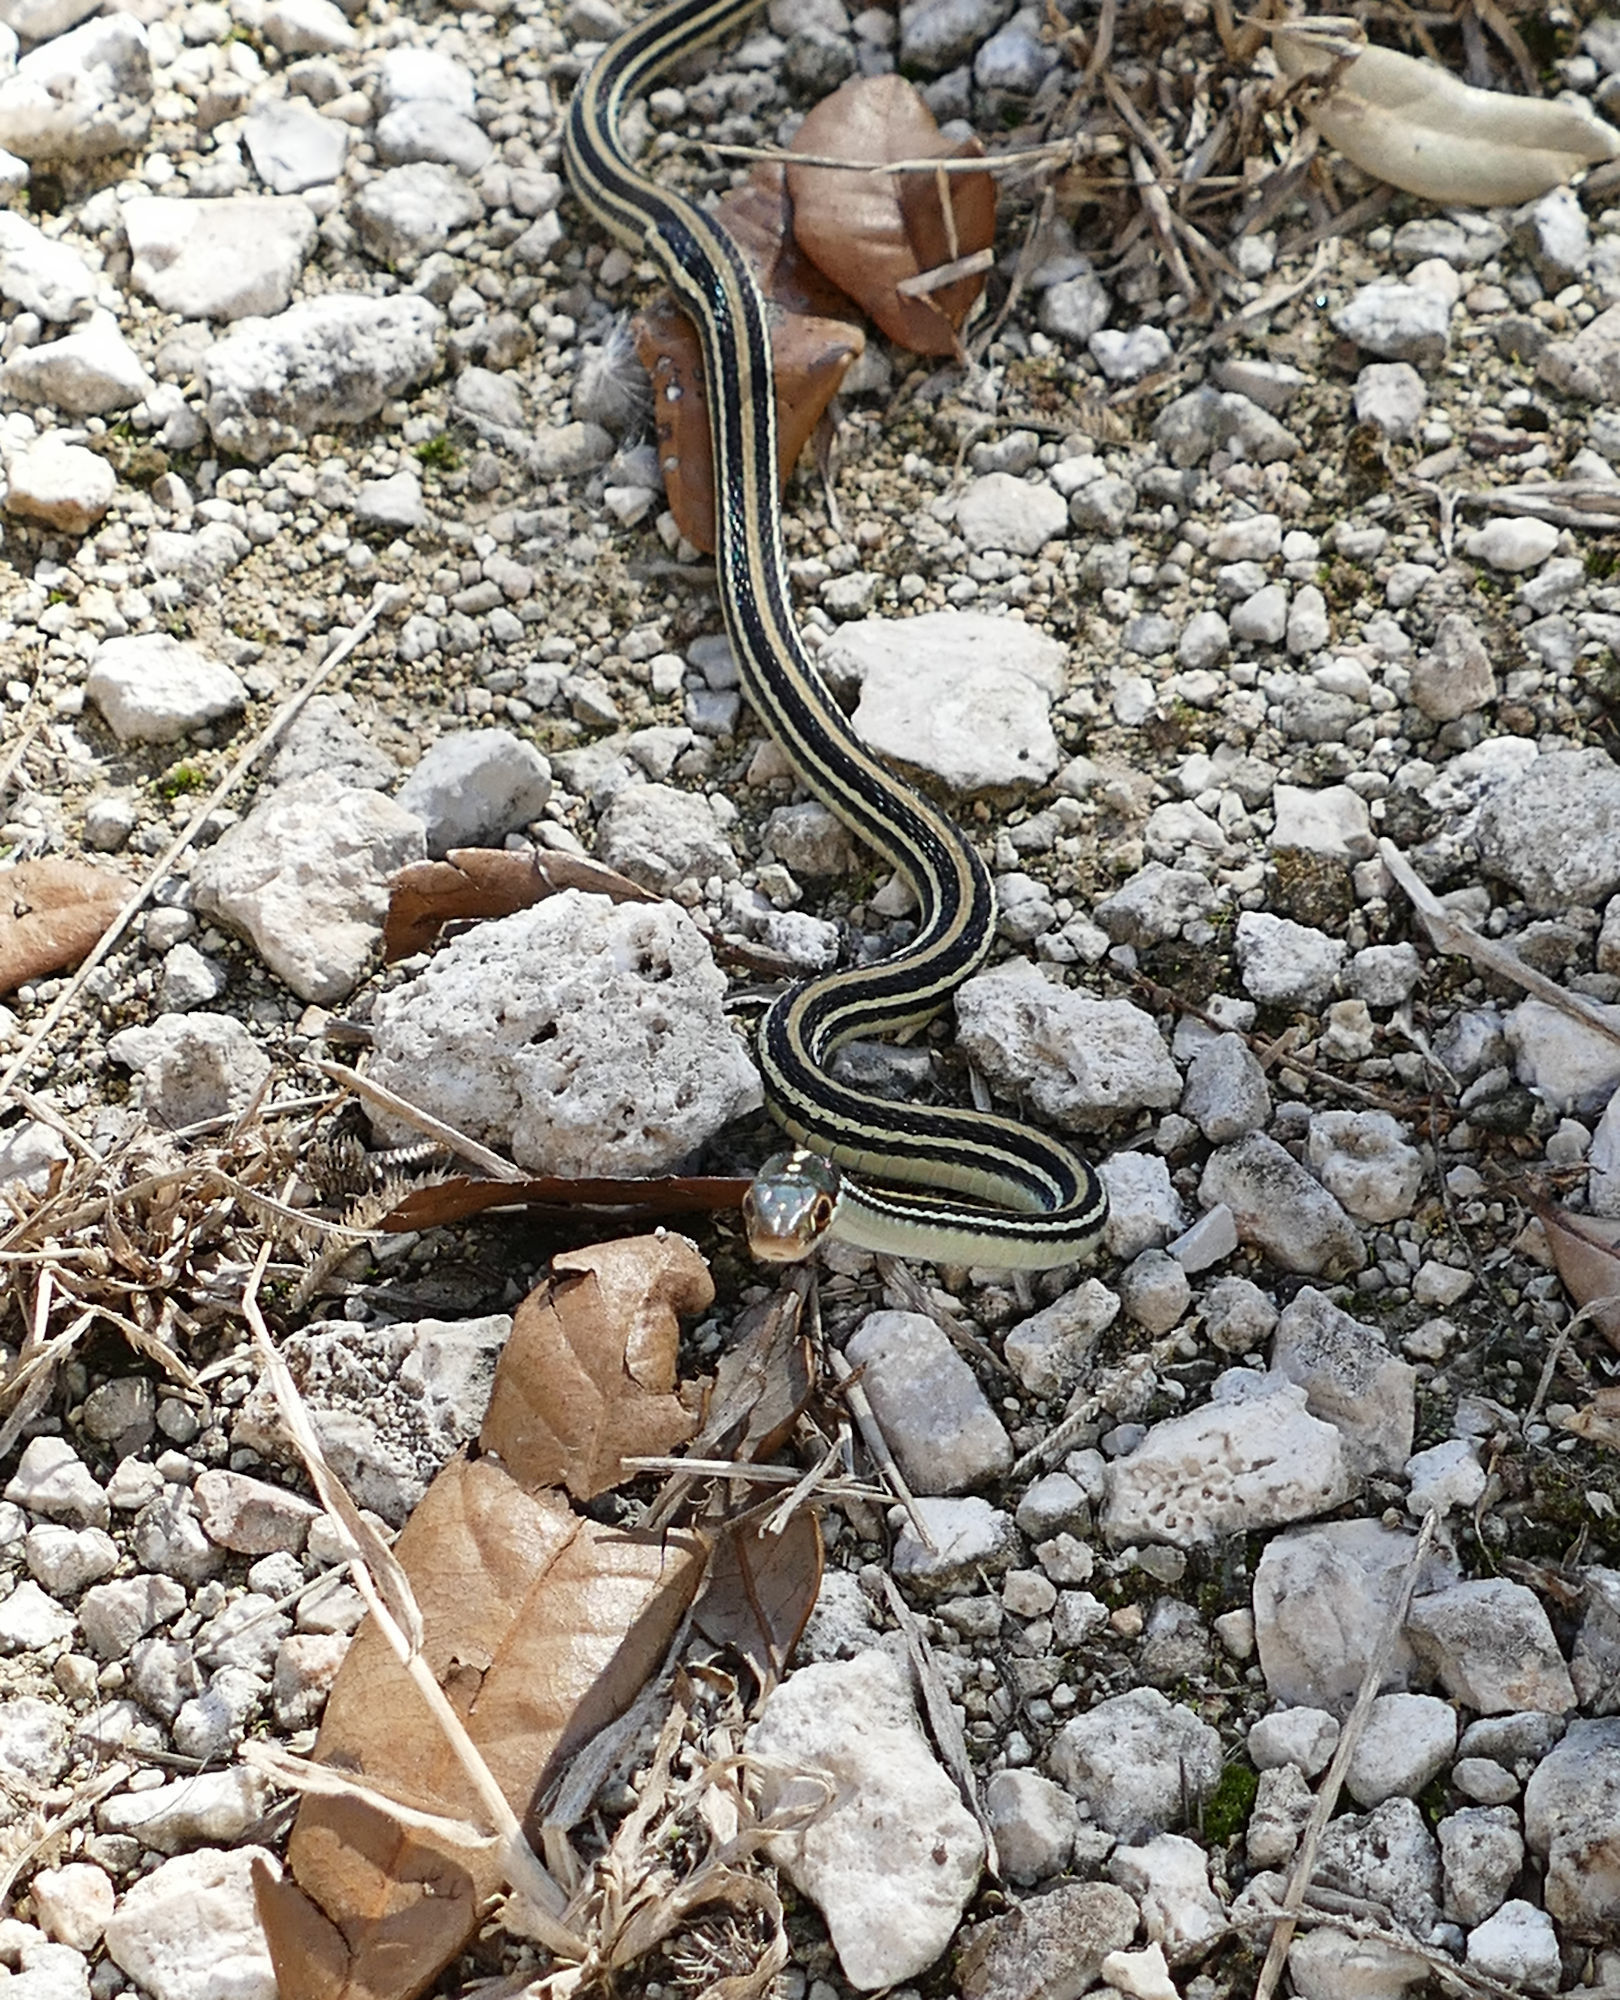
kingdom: Animalia
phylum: Chordata
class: Squamata
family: Colubridae
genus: Thamnophis
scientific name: Thamnophis proximus
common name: Western ribbon snake
